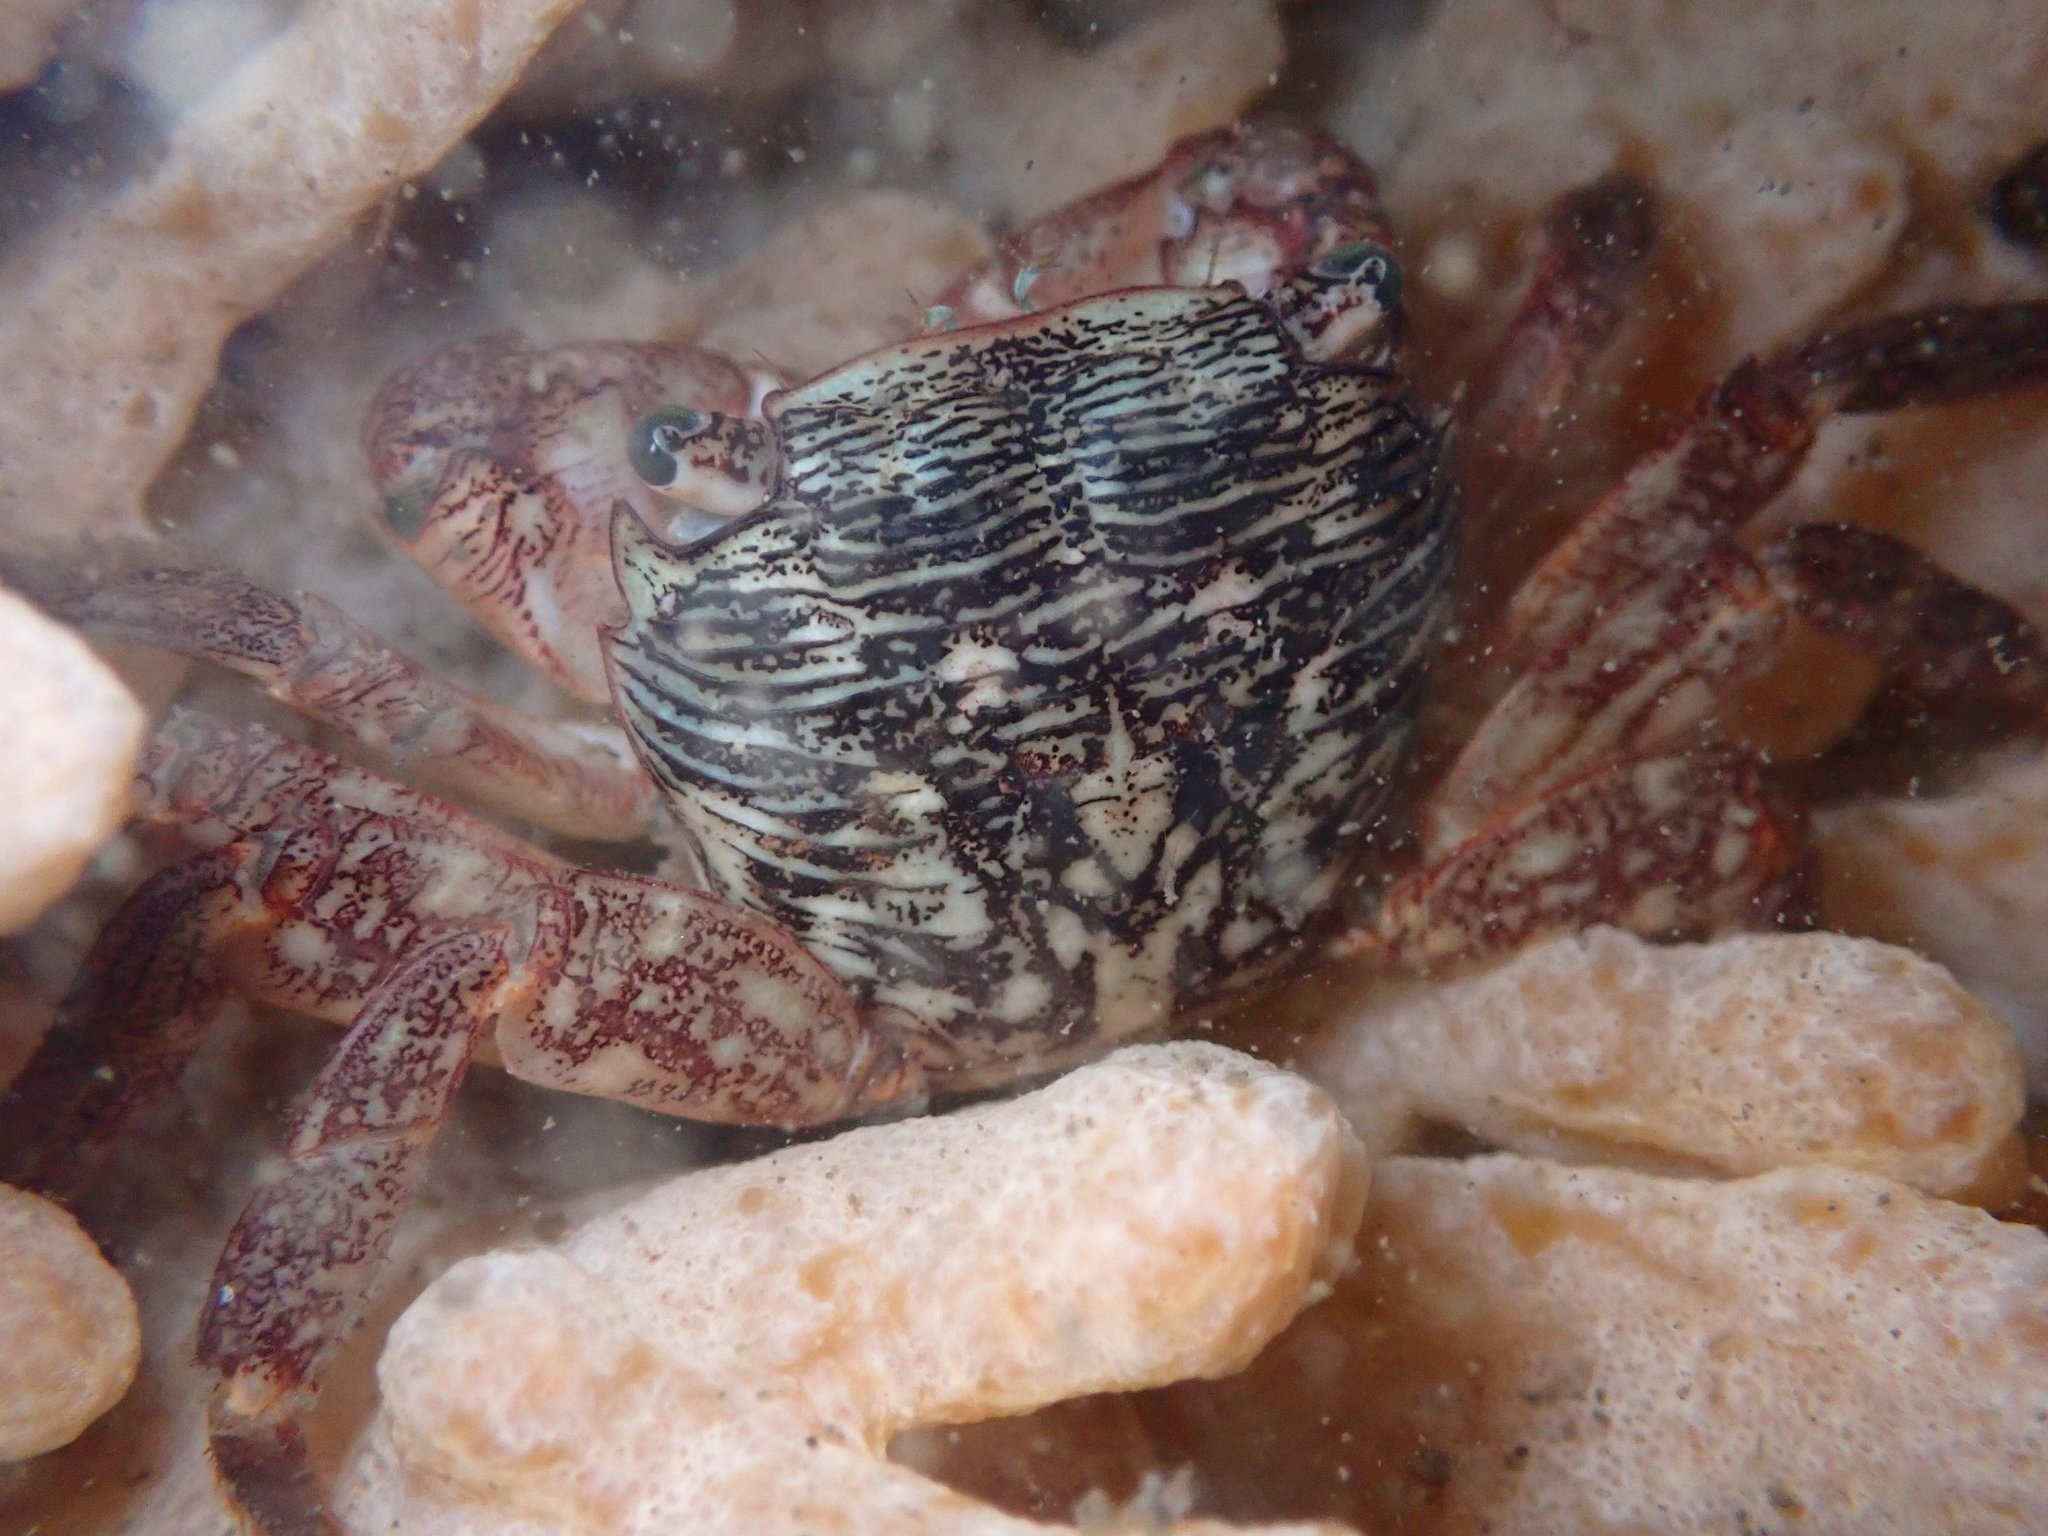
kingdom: Animalia
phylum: Arthropoda
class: Malacostraca
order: Decapoda
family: Grapsidae
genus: Pachygrapsus
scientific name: Pachygrapsus crassipes
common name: Striped shore crab
